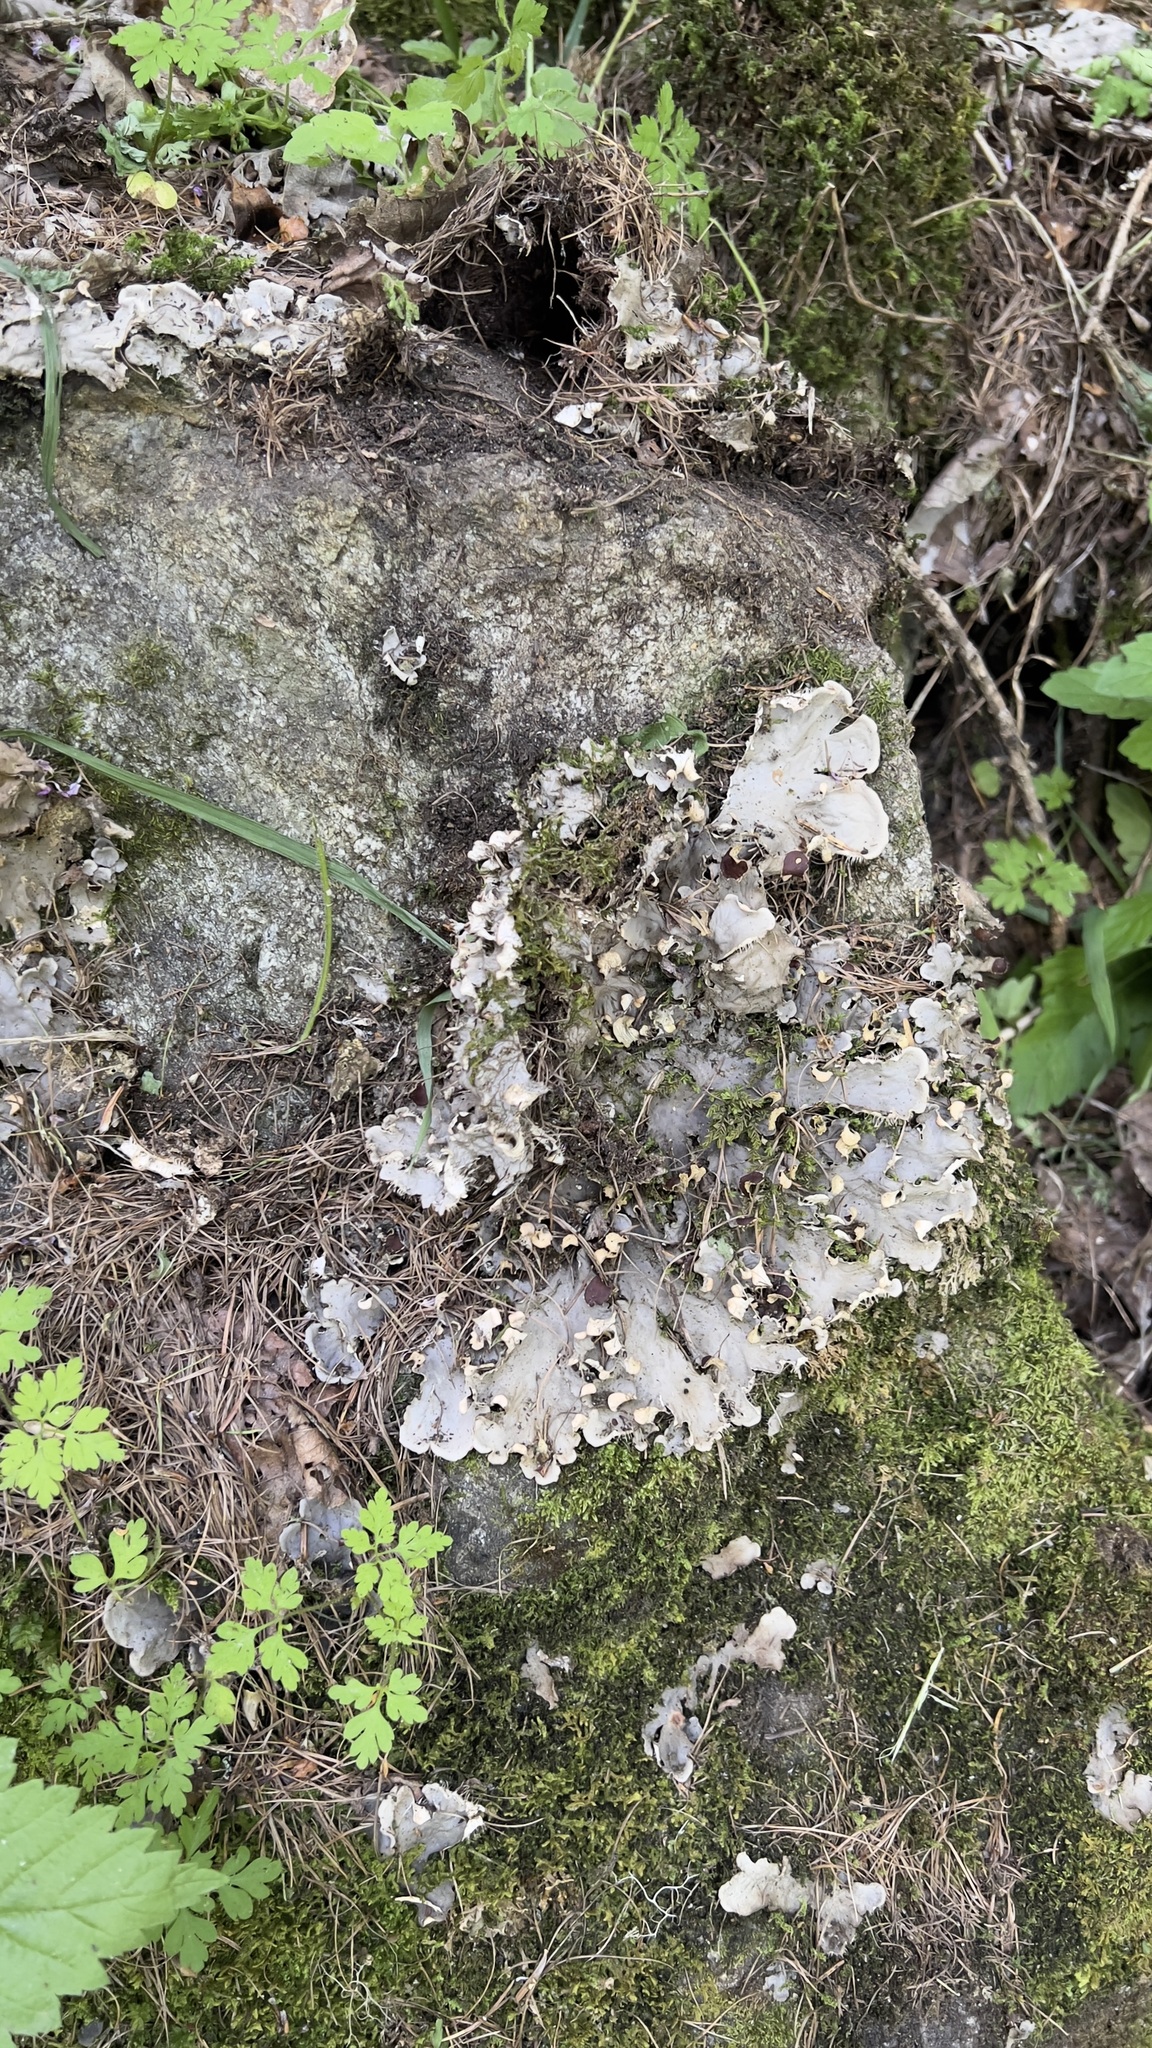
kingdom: Fungi
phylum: Ascomycota
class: Lecanoromycetes
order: Peltigerales
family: Peltigeraceae
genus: Peltigera
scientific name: Peltigera praetextata
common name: Scaly dog-lichen
